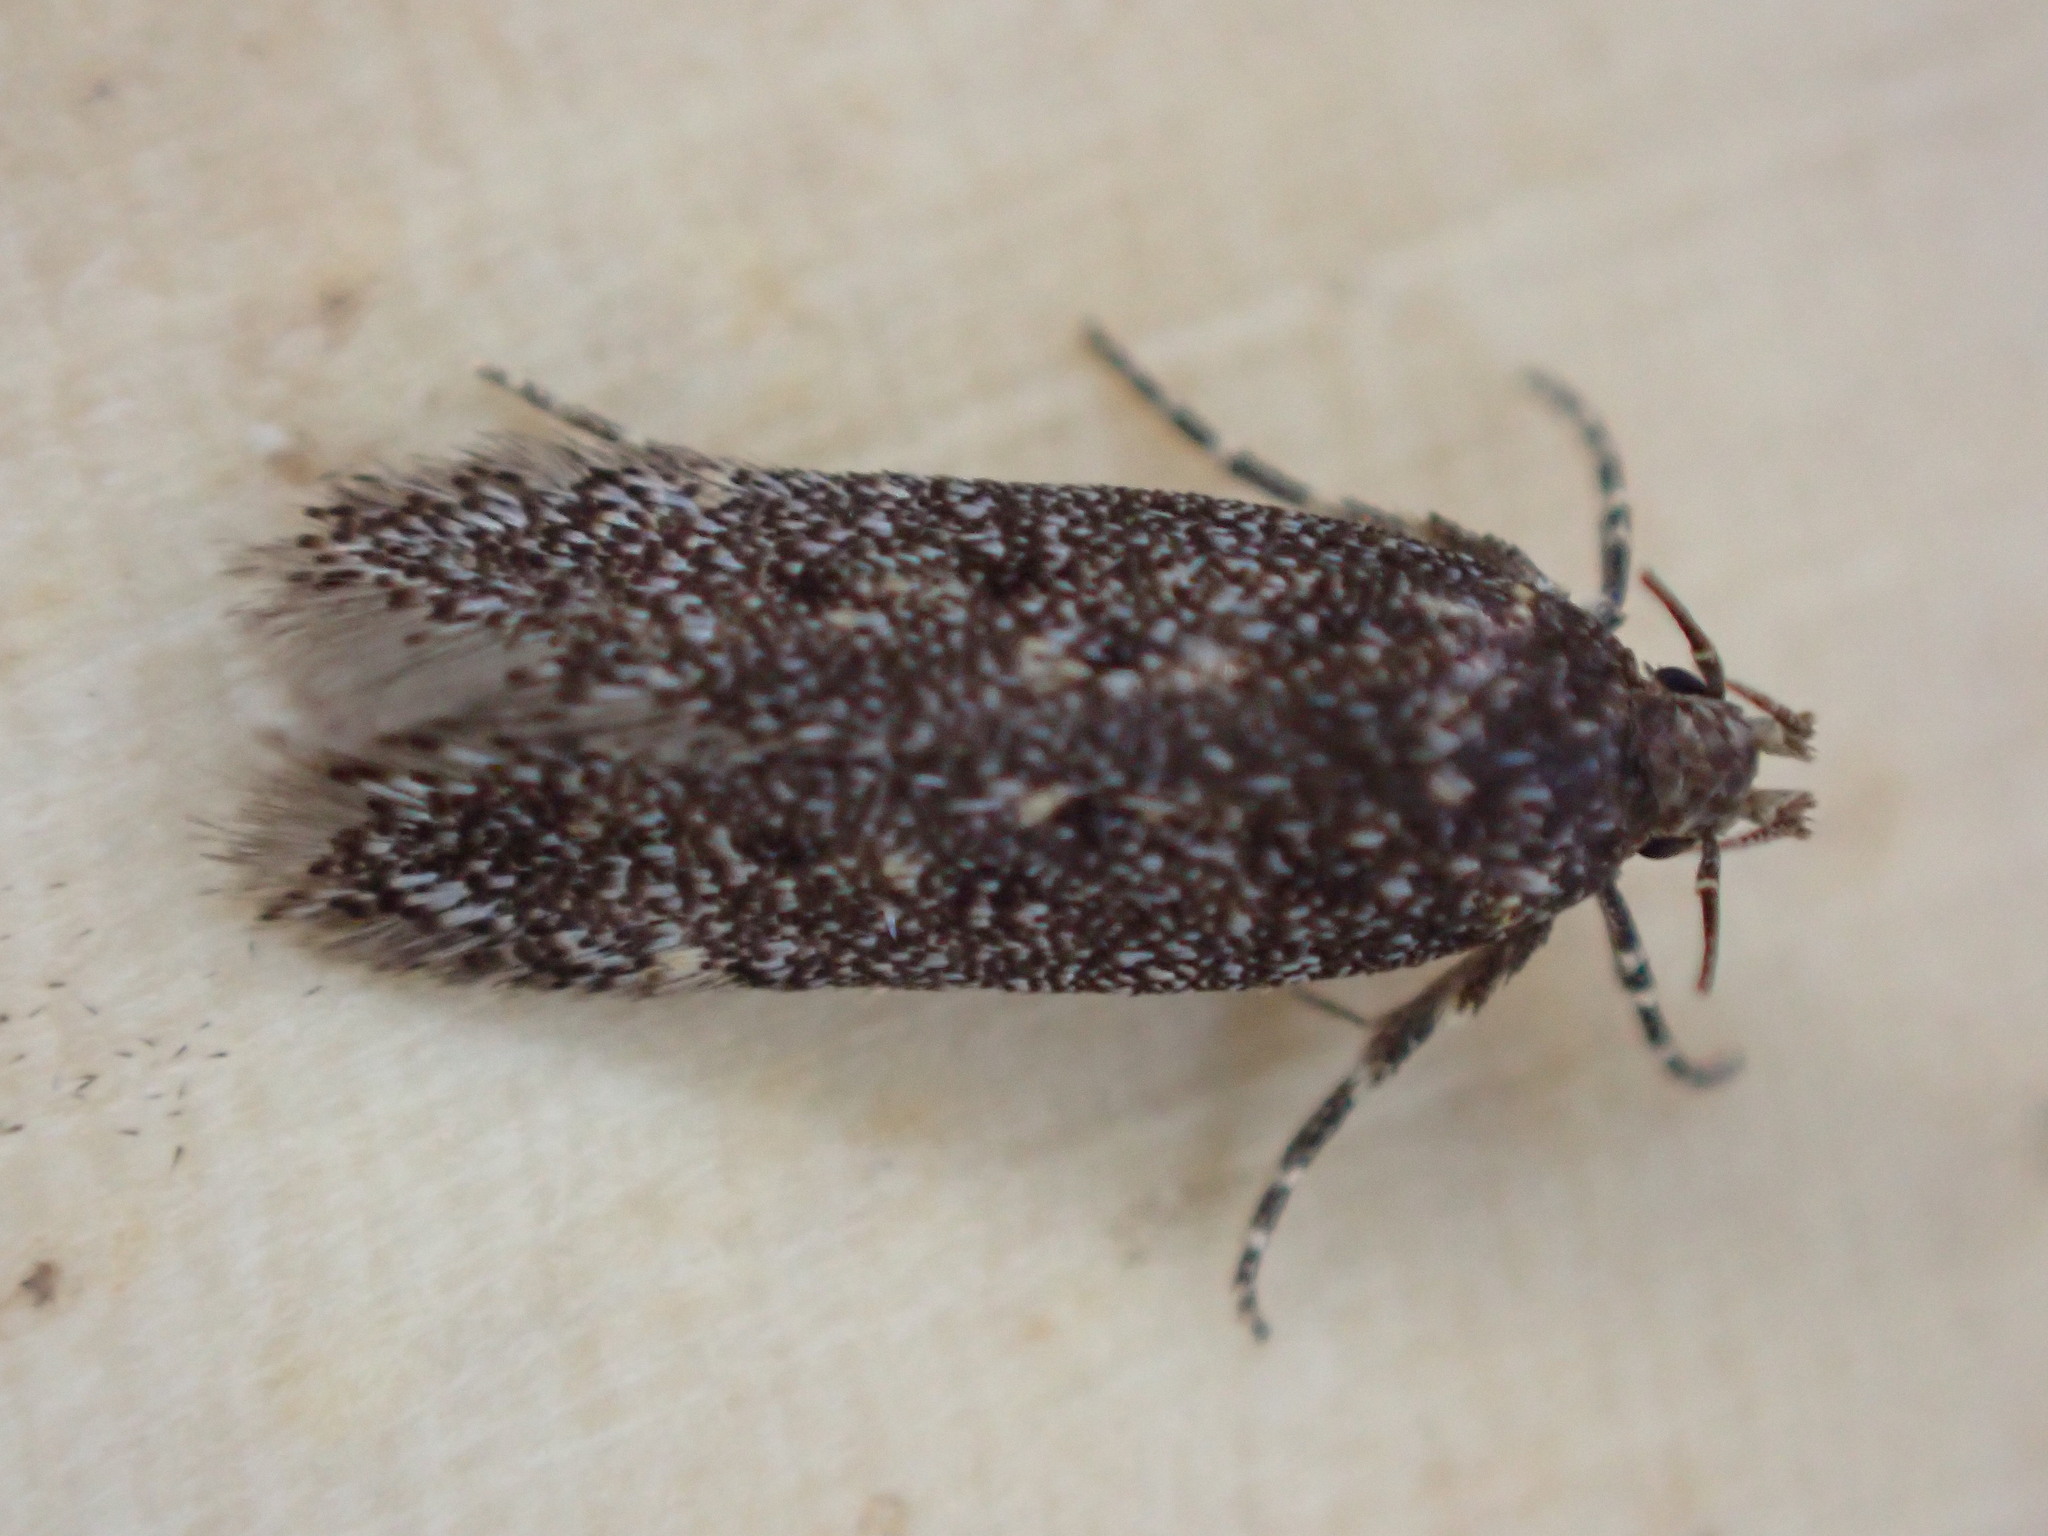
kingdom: Animalia
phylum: Arthropoda
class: Insecta
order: Lepidoptera
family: Gelechiidae
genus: Bryotropha
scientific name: Bryotropha affinis
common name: Dark groundling
